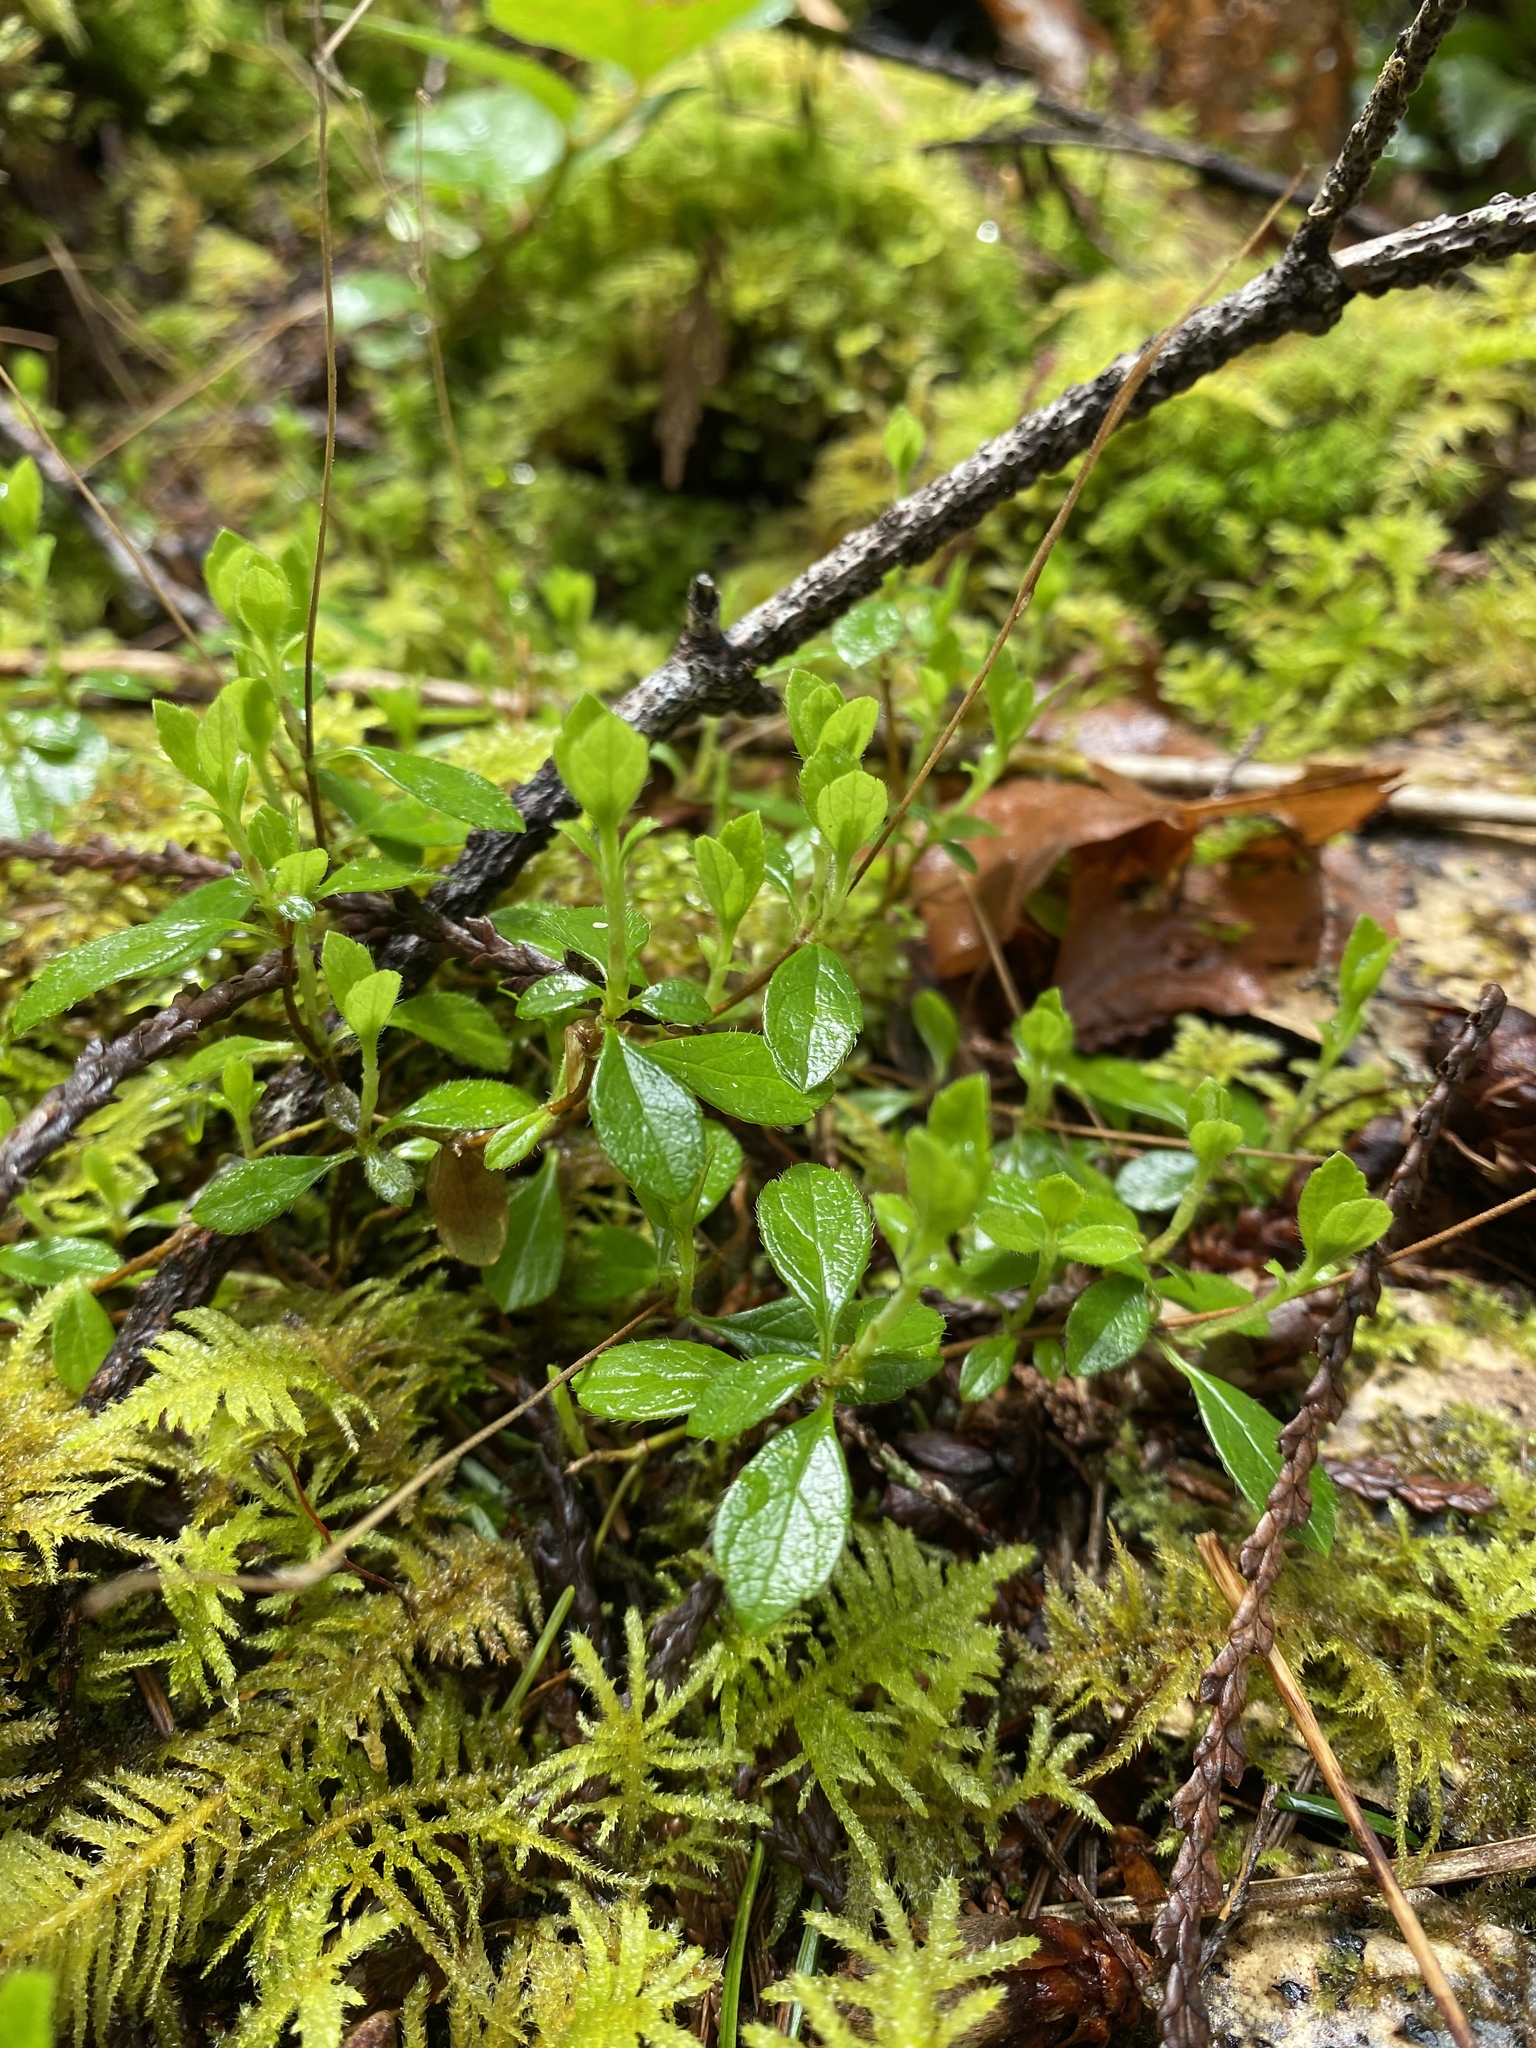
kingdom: Plantae
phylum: Tracheophyta
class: Magnoliopsida
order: Dipsacales
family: Caprifoliaceae
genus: Linnaea
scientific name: Linnaea borealis
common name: Twinflower
